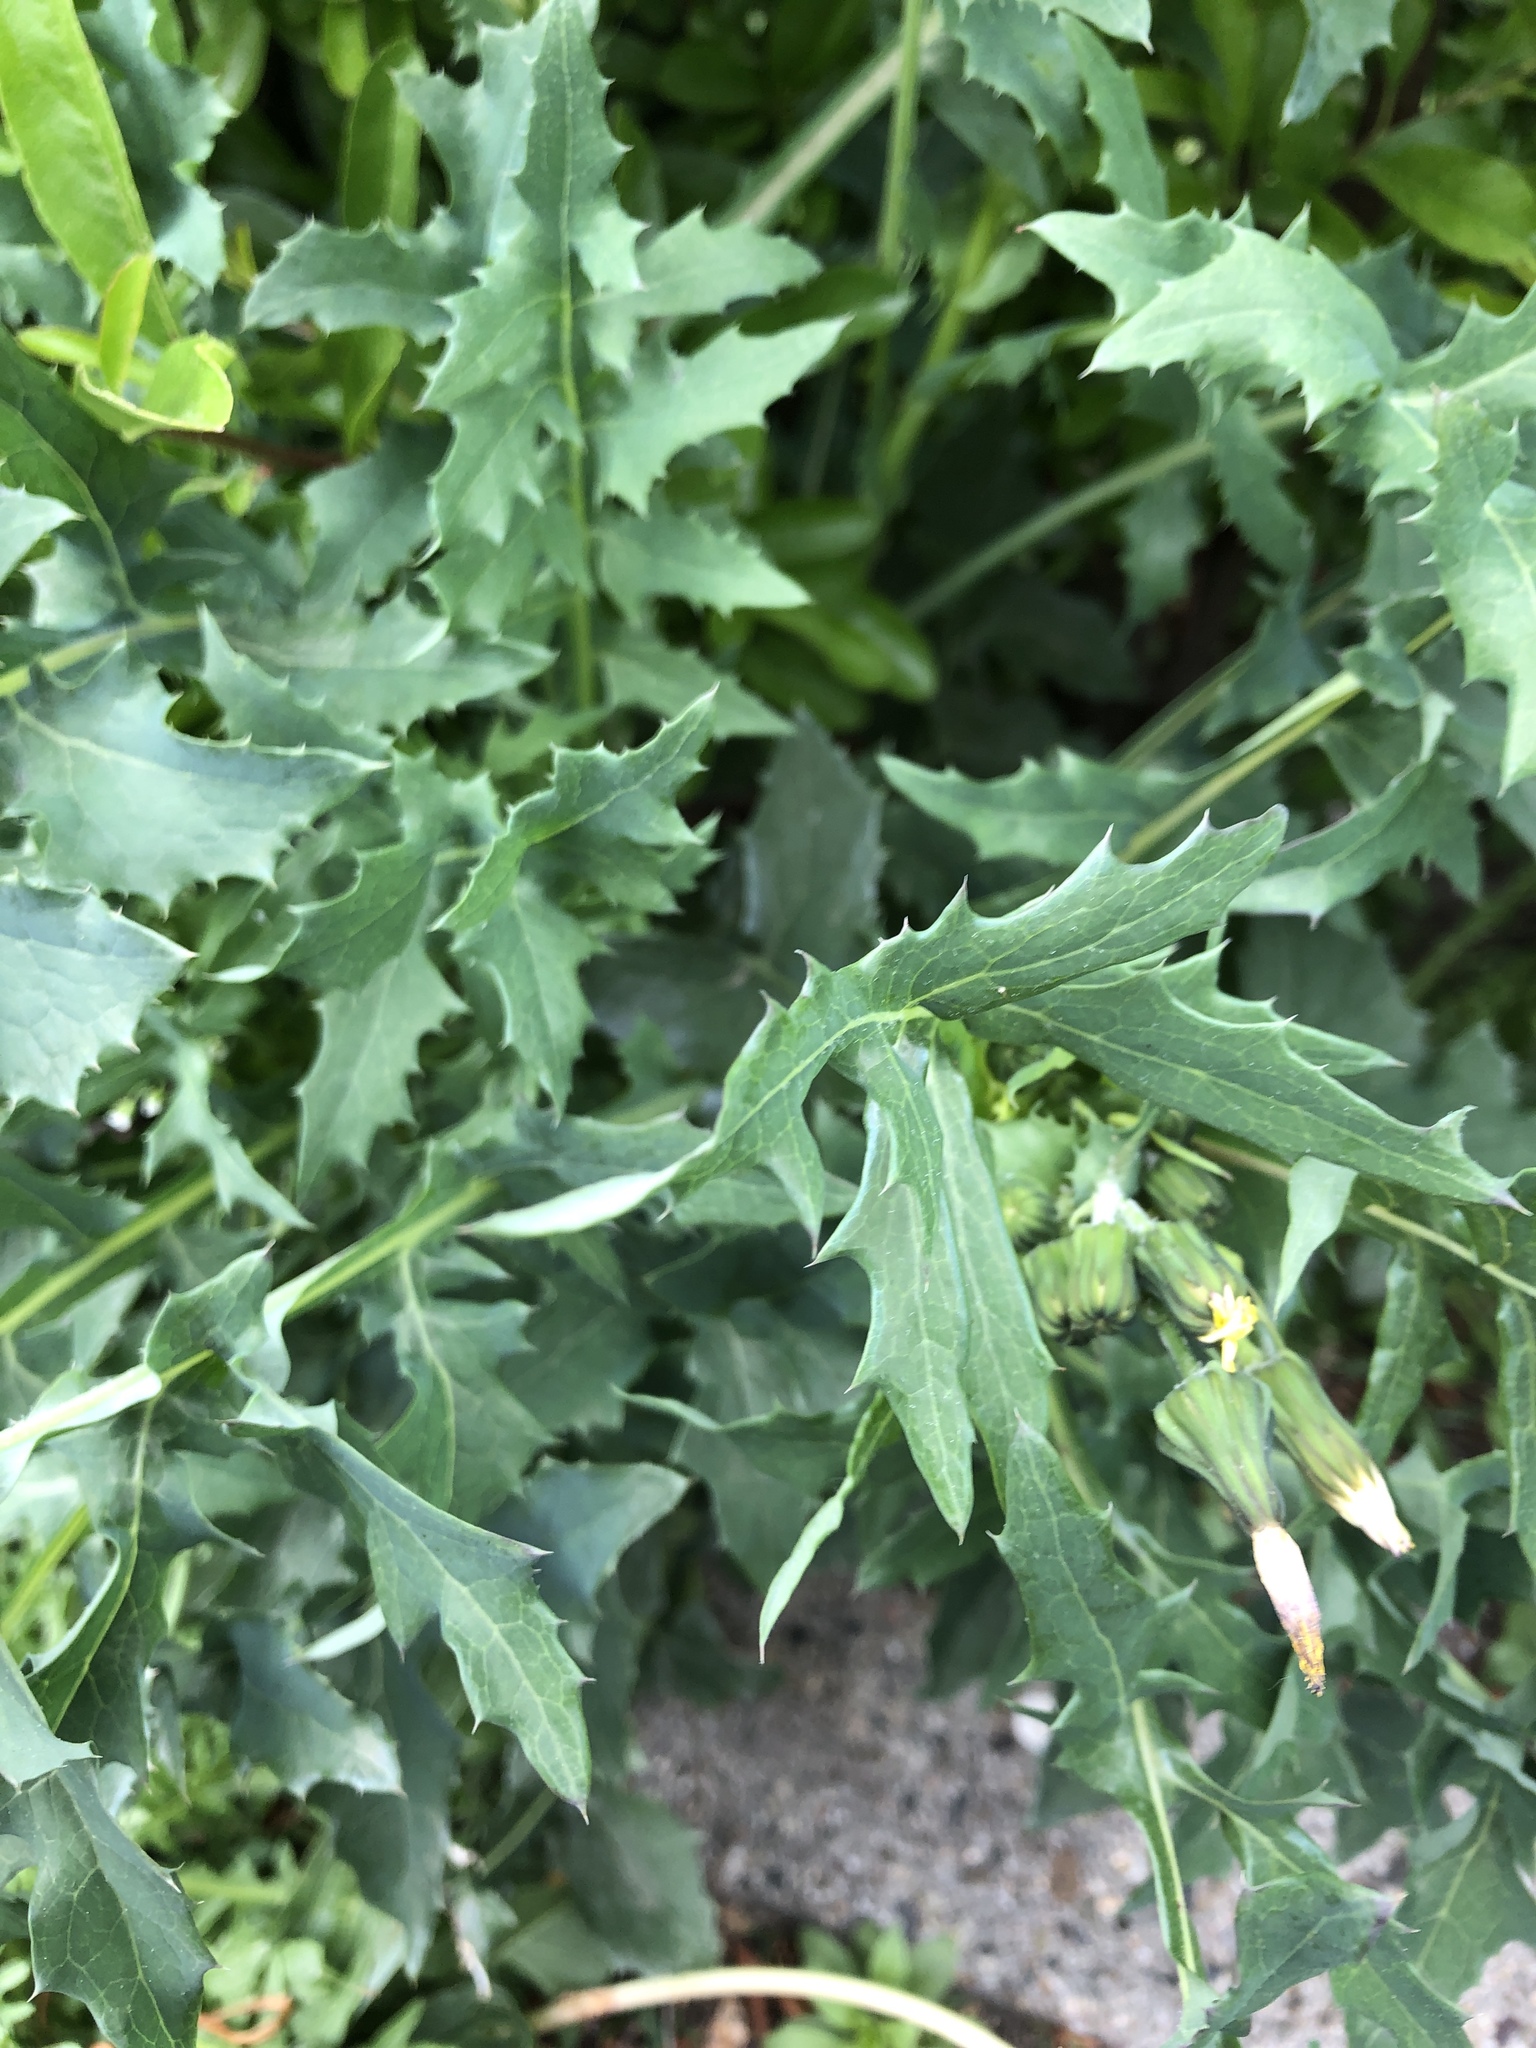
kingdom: Plantae
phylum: Tracheophyta
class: Magnoliopsida
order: Asterales
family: Asteraceae
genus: Sonchus
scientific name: Sonchus oleraceus
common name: Common sowthistle
